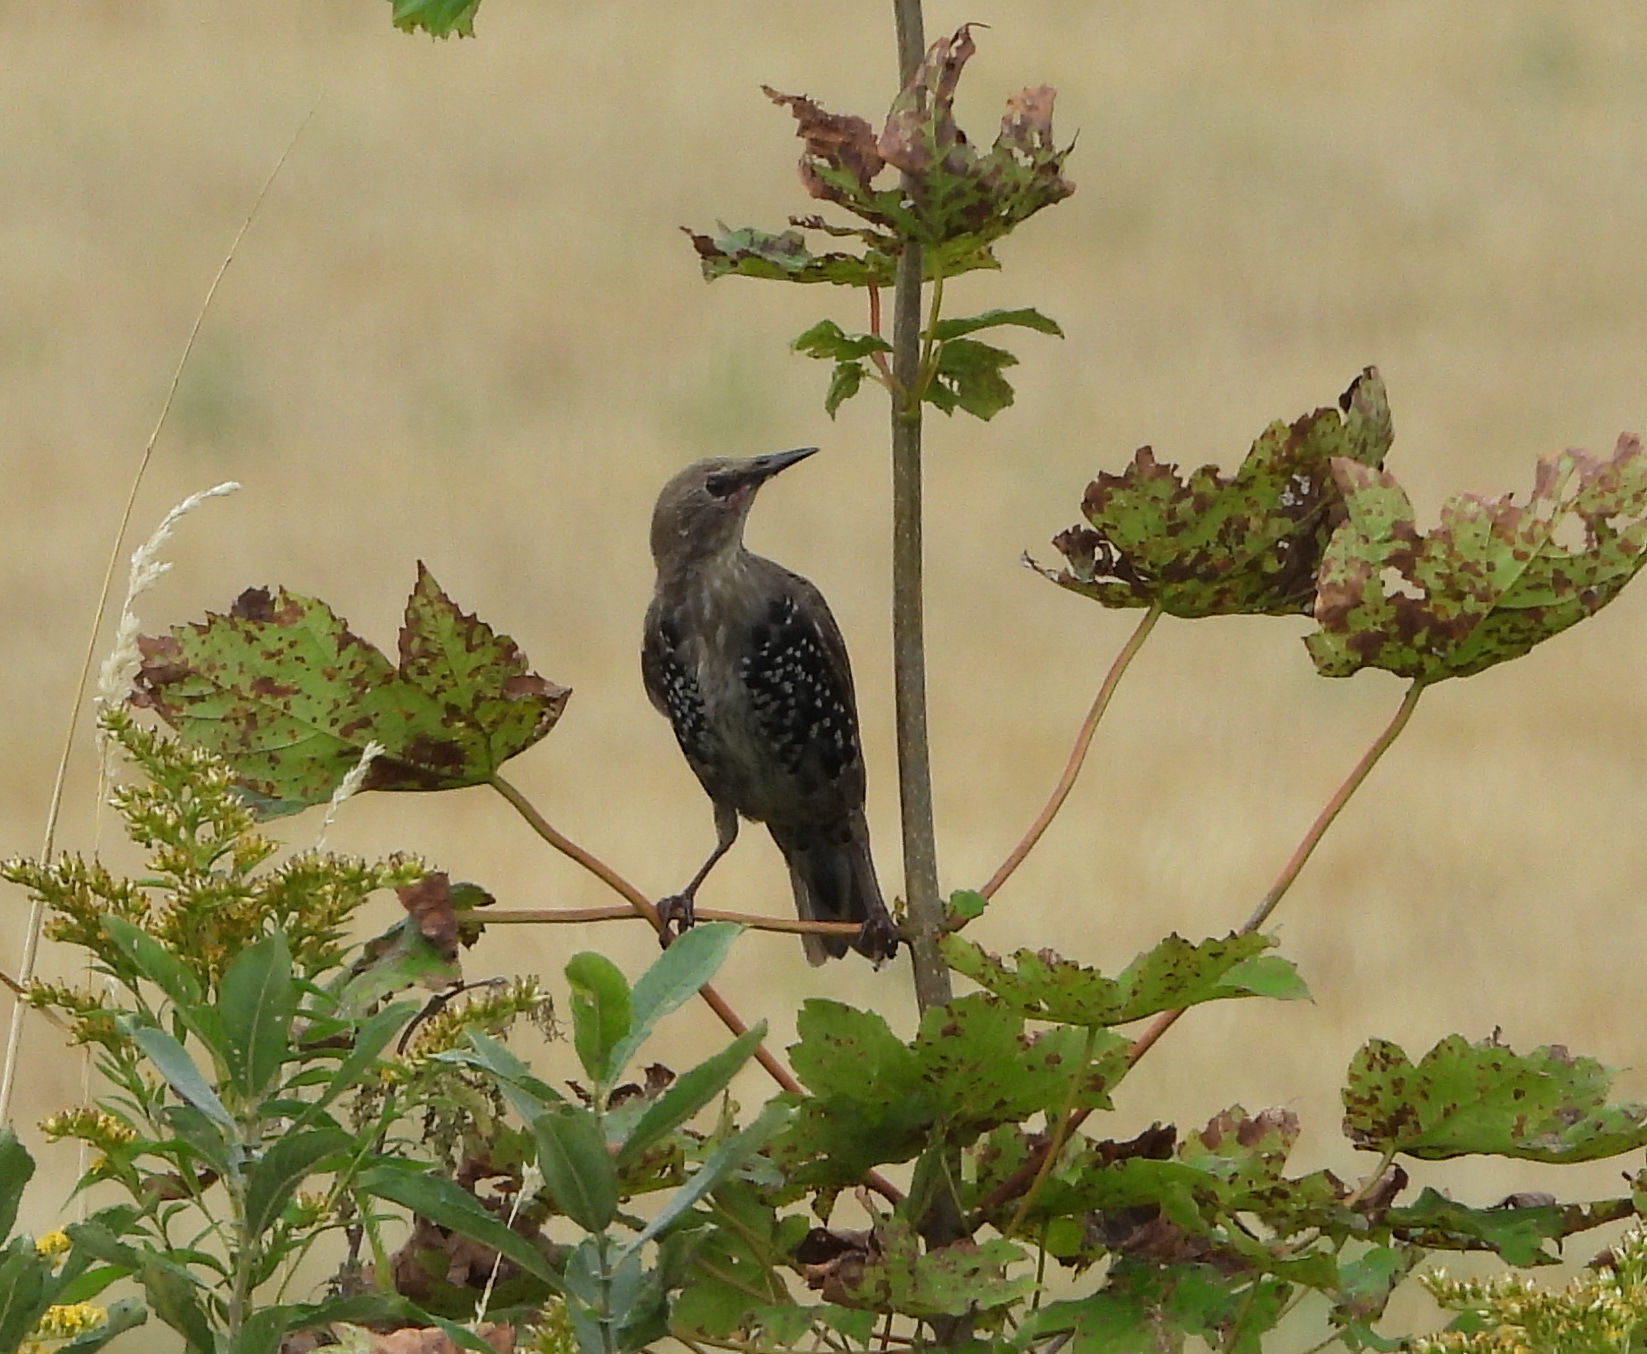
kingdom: Animalia
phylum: Chordata
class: Aves
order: Passeriformes
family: Sturnidae
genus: Sturnus
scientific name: Sturnus vulgaris
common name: Common starling
